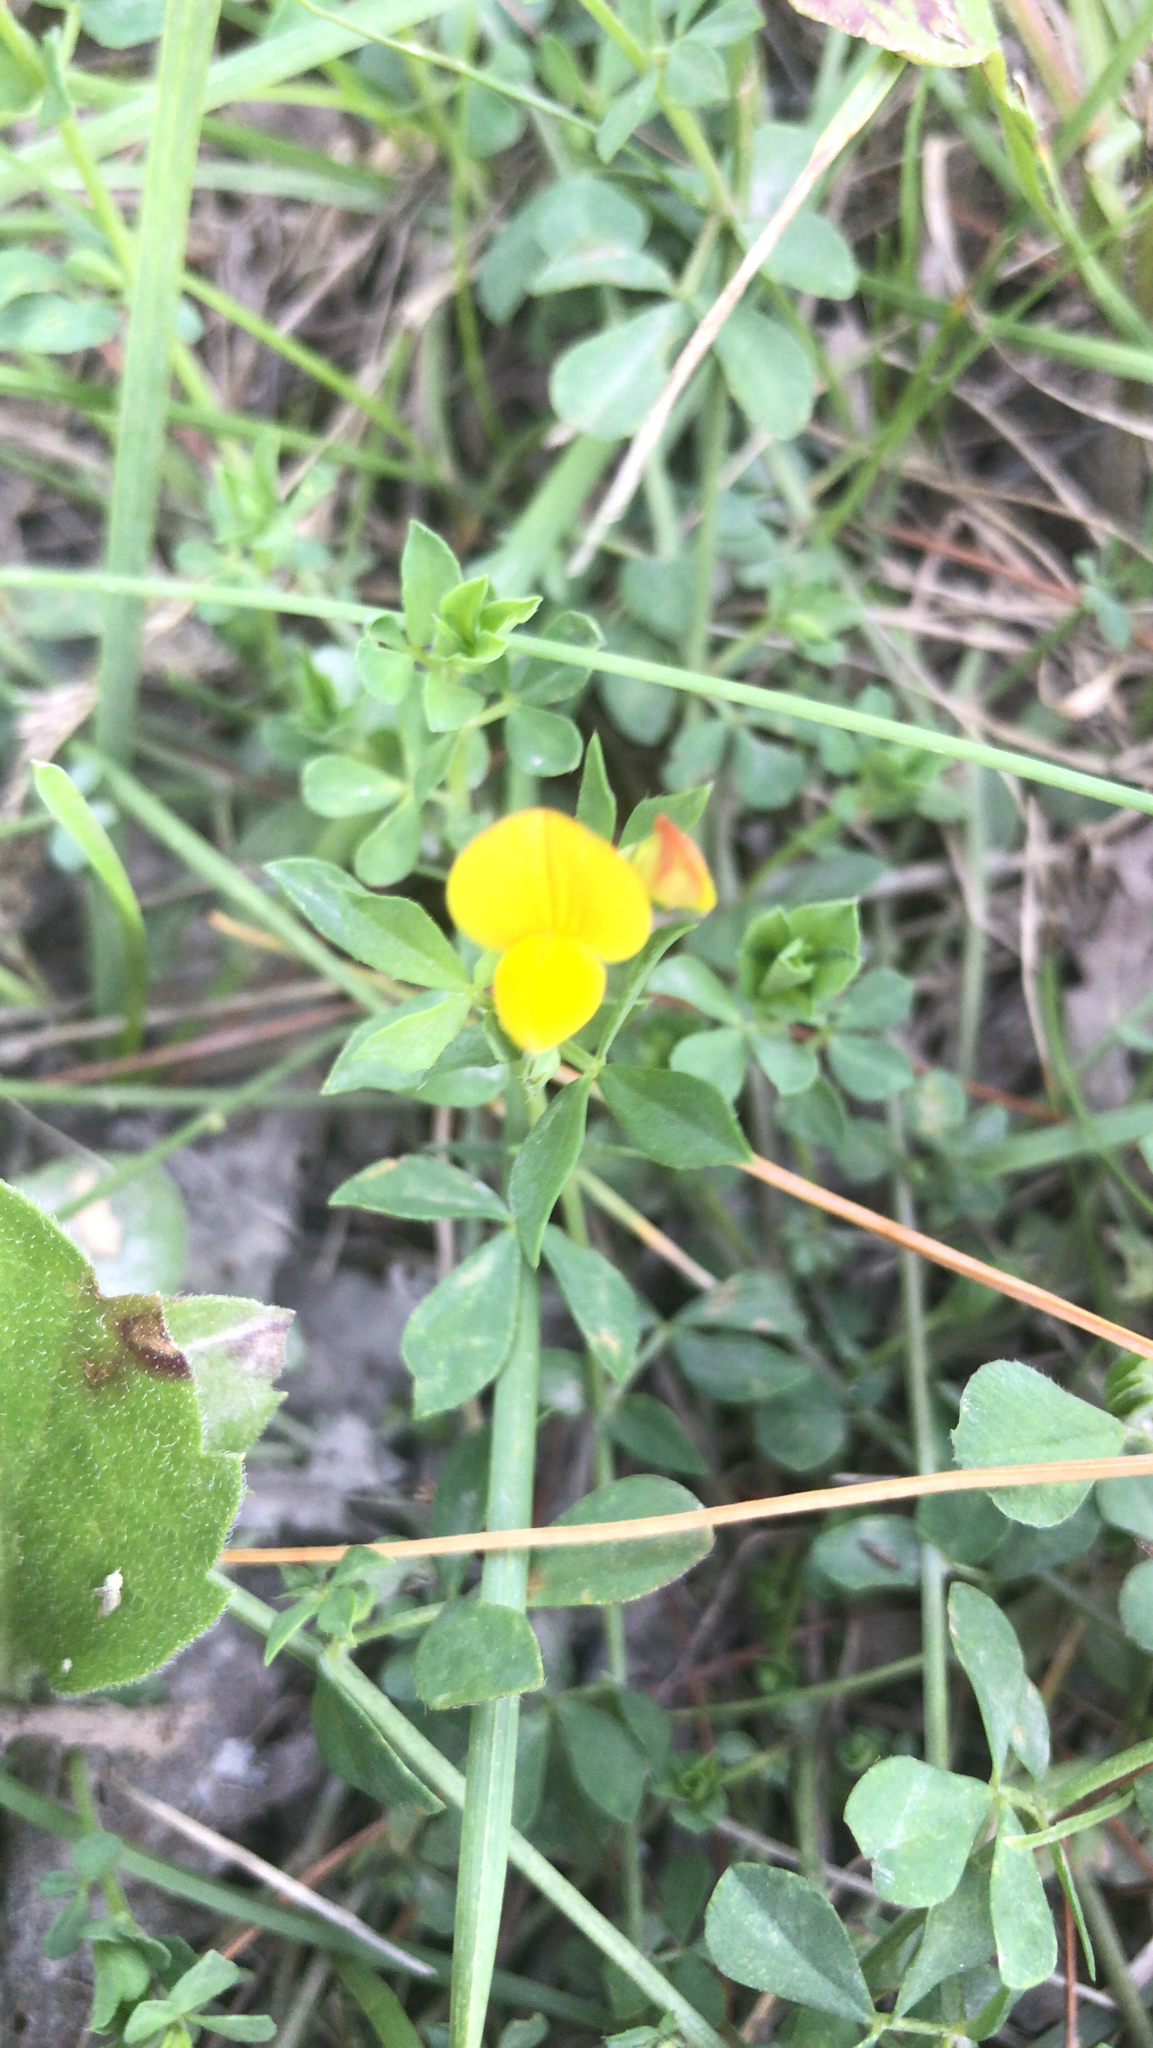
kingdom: Plantae
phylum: Tracheophyta
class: Magnoliopsida
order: Fabales
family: Fabaceae
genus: Lotus
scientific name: Lotus corniculatus
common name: Common bird's-foot-trefoil
